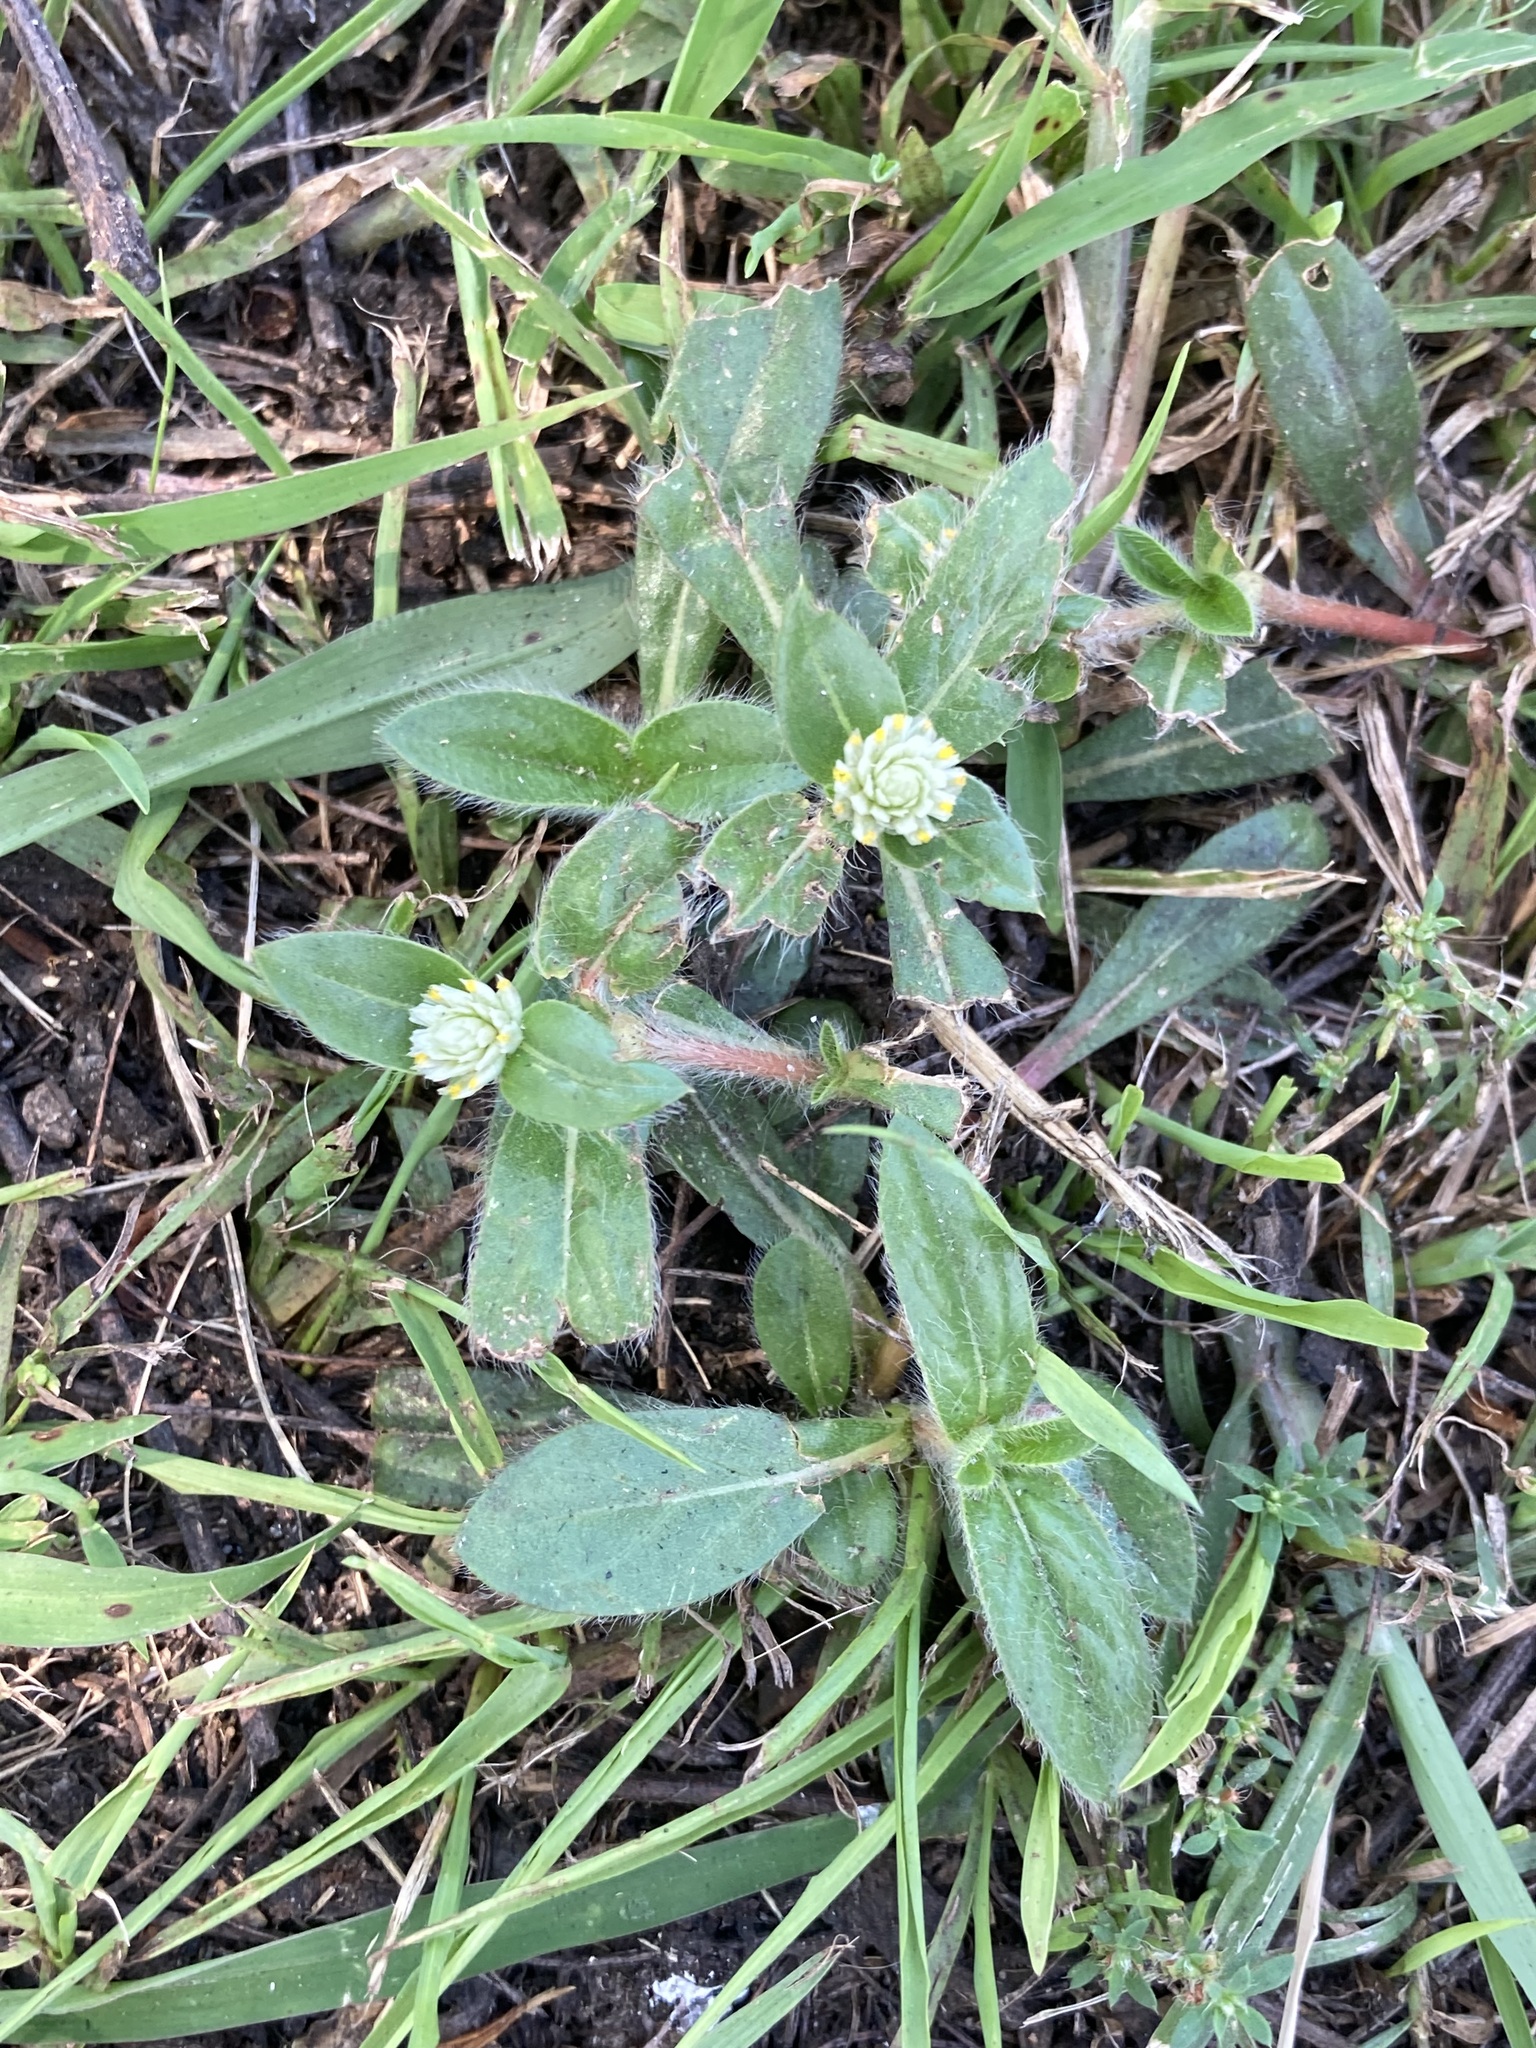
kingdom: Plantae
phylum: Tracheophyta
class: Magnoliopsida
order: Caryophyllales
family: Amaranthaceae
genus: Gomphrena
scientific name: Gomphrena celosioides
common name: Gomphrena-weed
